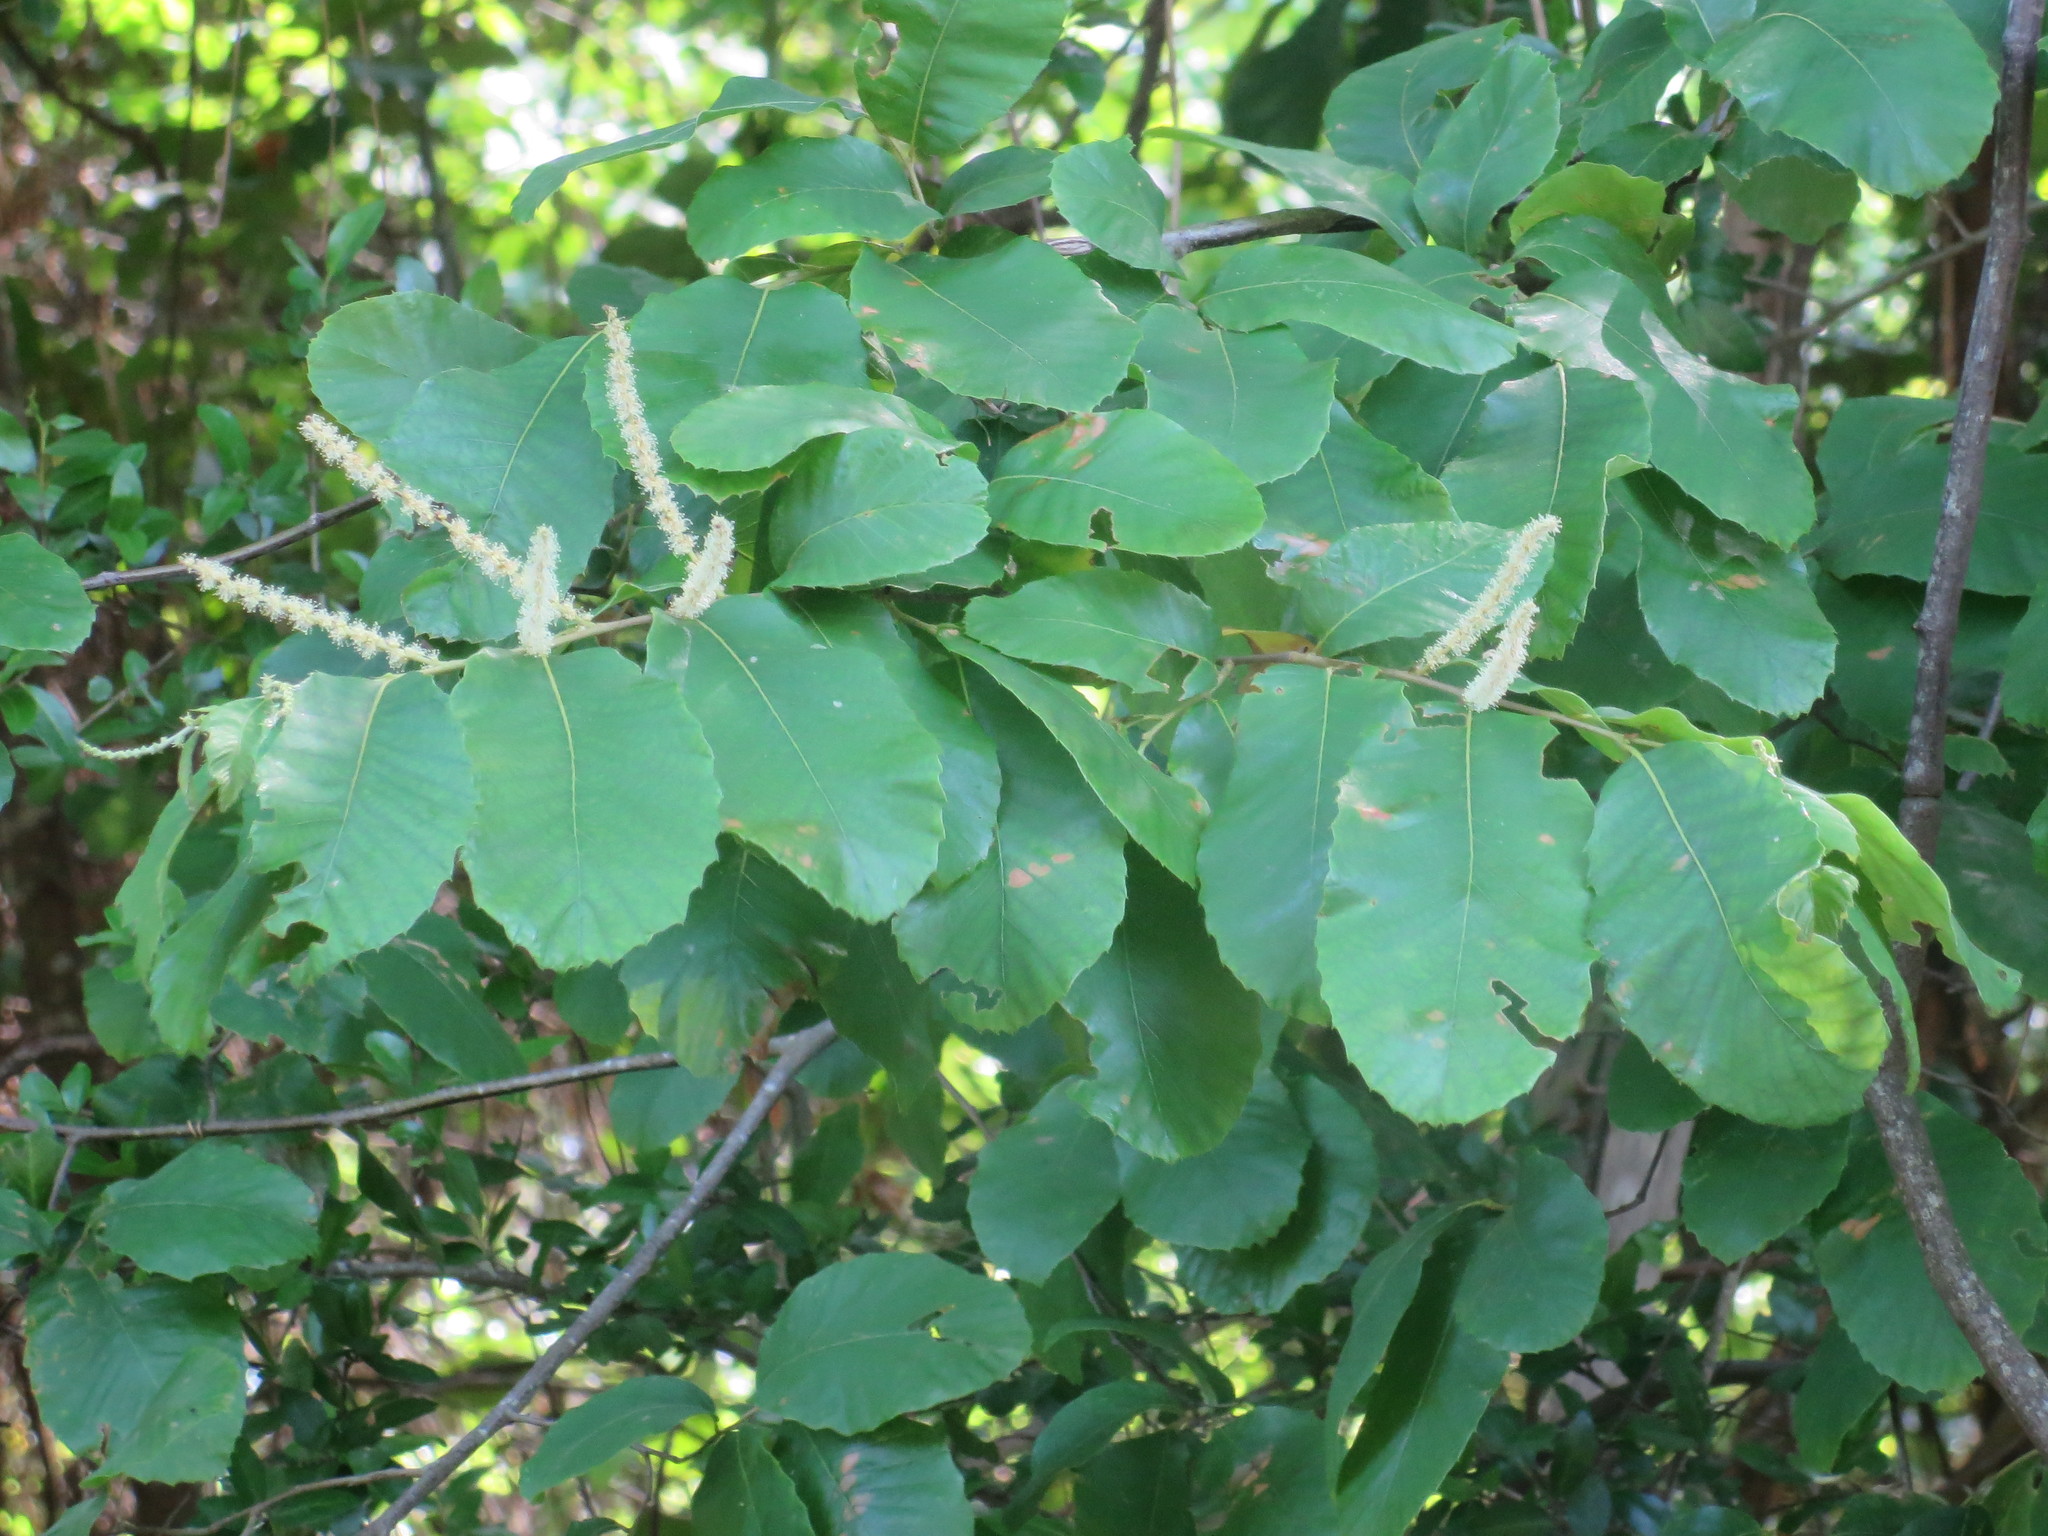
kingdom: Plantae
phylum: Tracheophyta
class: Magnoliopsida
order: Fagales
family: Fagaceae
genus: Castanea
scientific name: Castanea pumila
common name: Chinkapin
